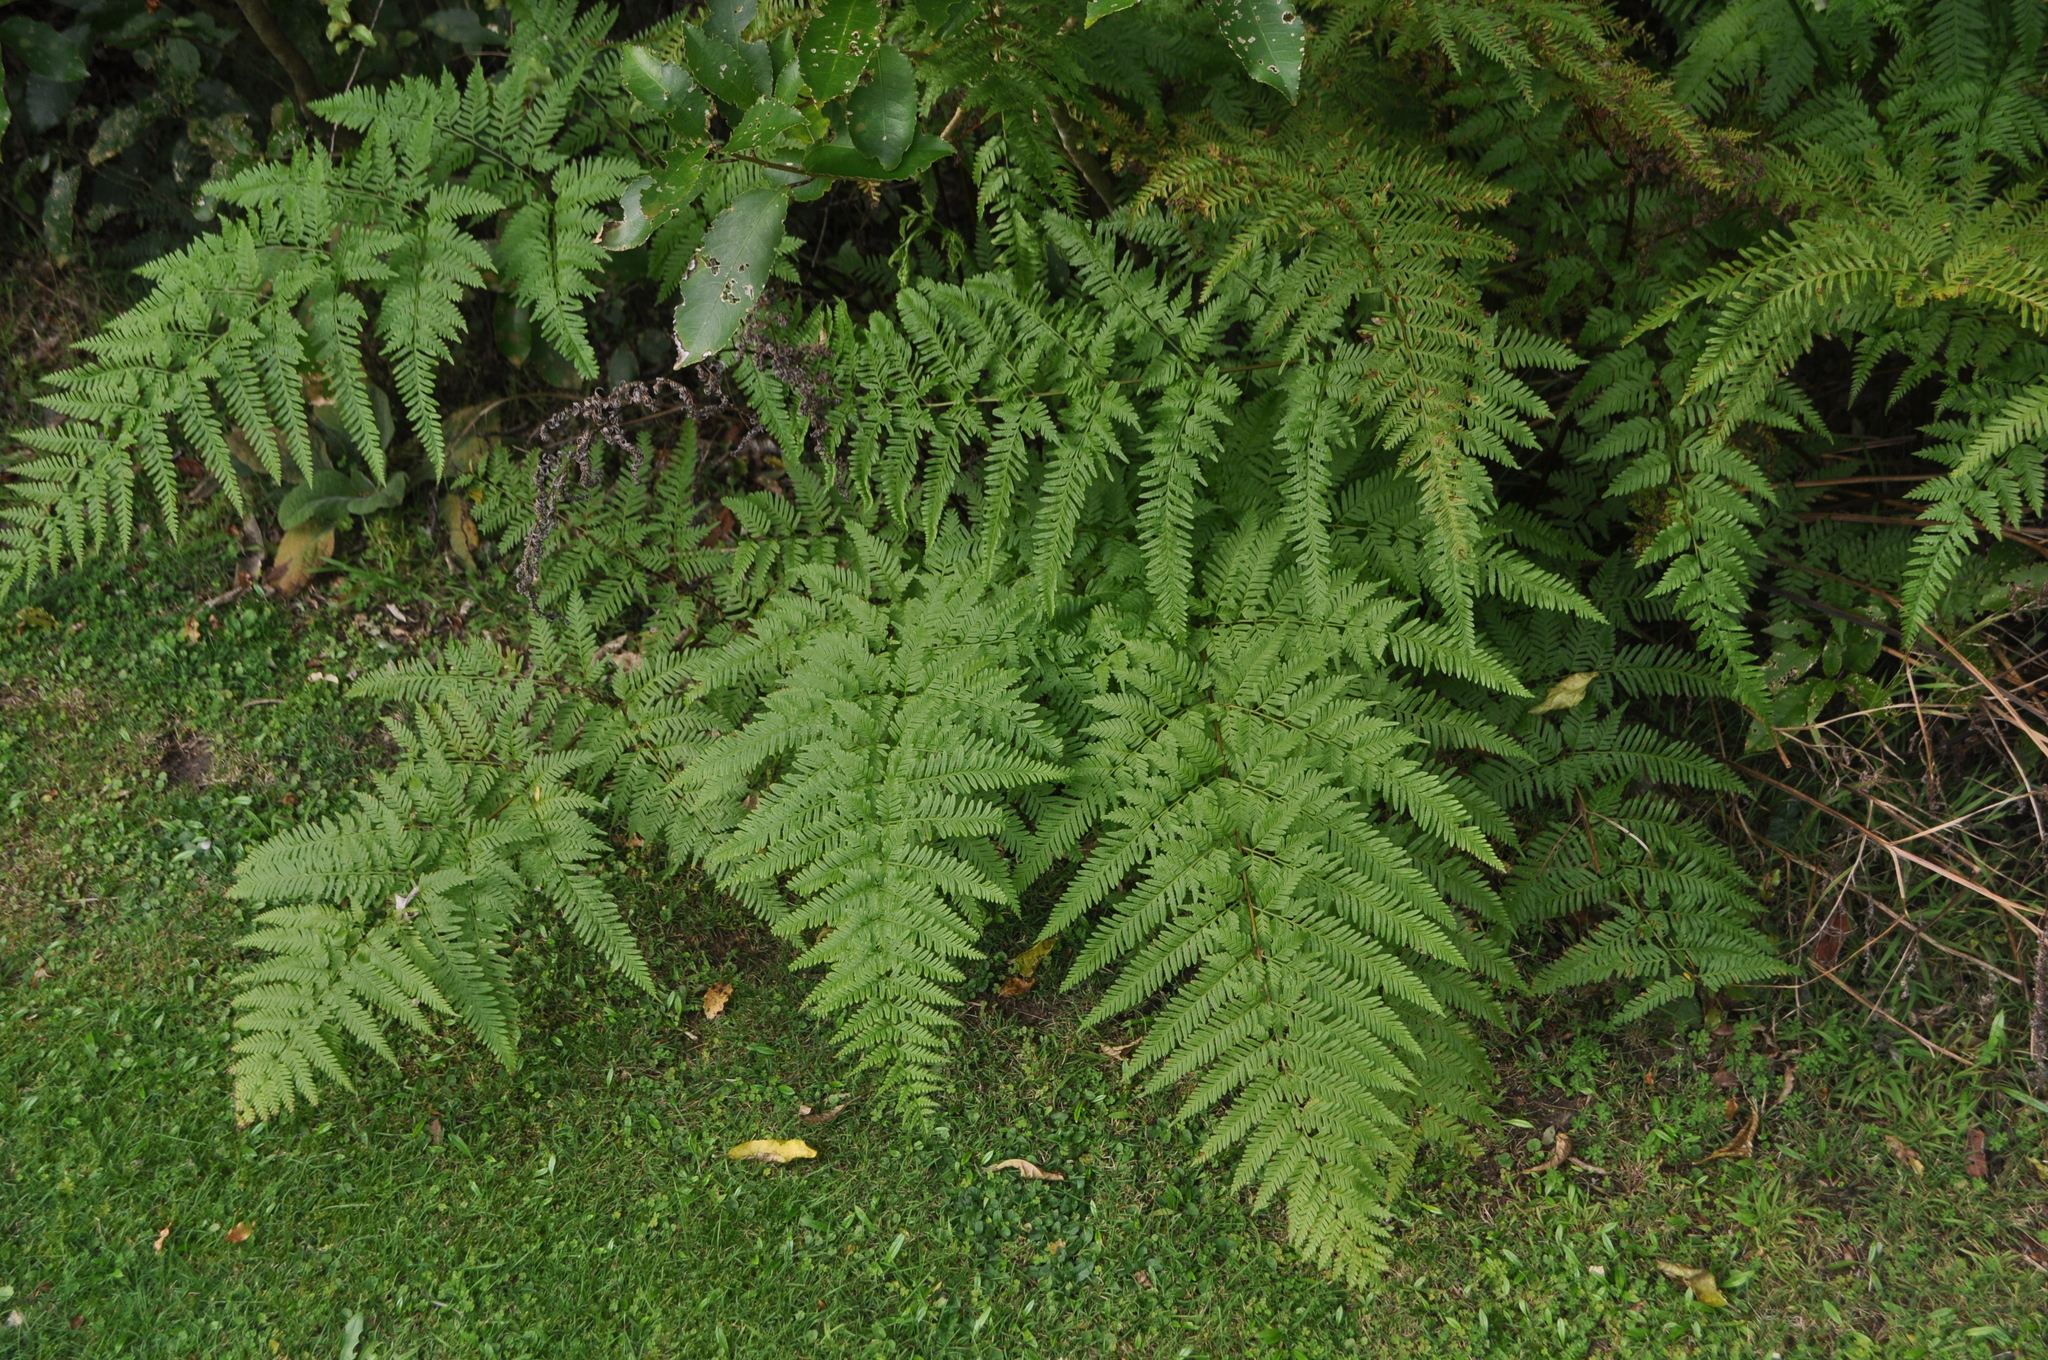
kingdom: Plantae
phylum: Tracheophyta
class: Polypodiopsida
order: Polypodiales
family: Pteridaceae
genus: Pteris
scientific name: Pteris tremula
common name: Australian brake
